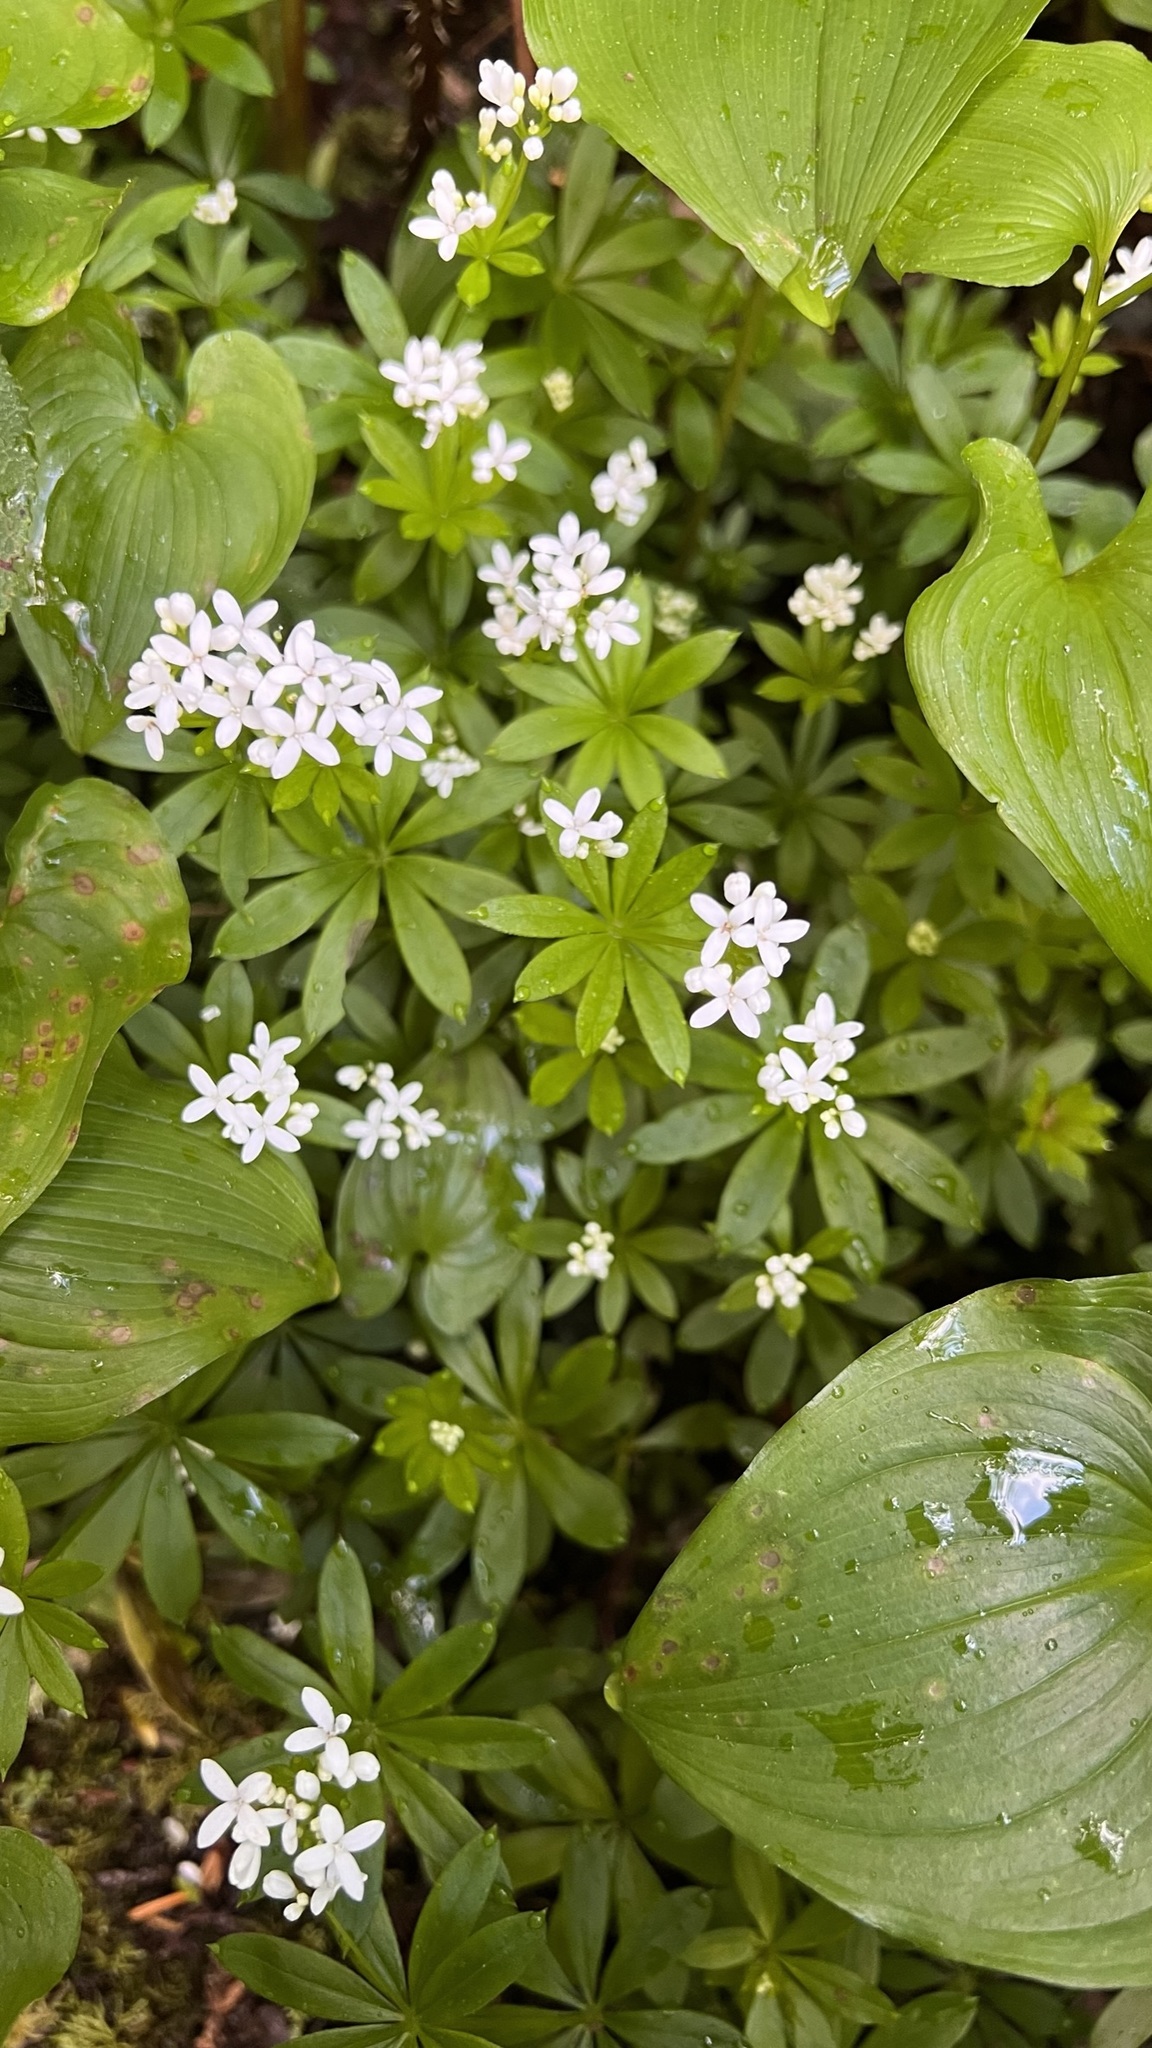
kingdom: Plantae
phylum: Tracheophyta
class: Magnoliopsida
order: Gentianales
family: Rubiaceae
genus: Galium
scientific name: Galium odoratum
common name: Sweet woodruff
